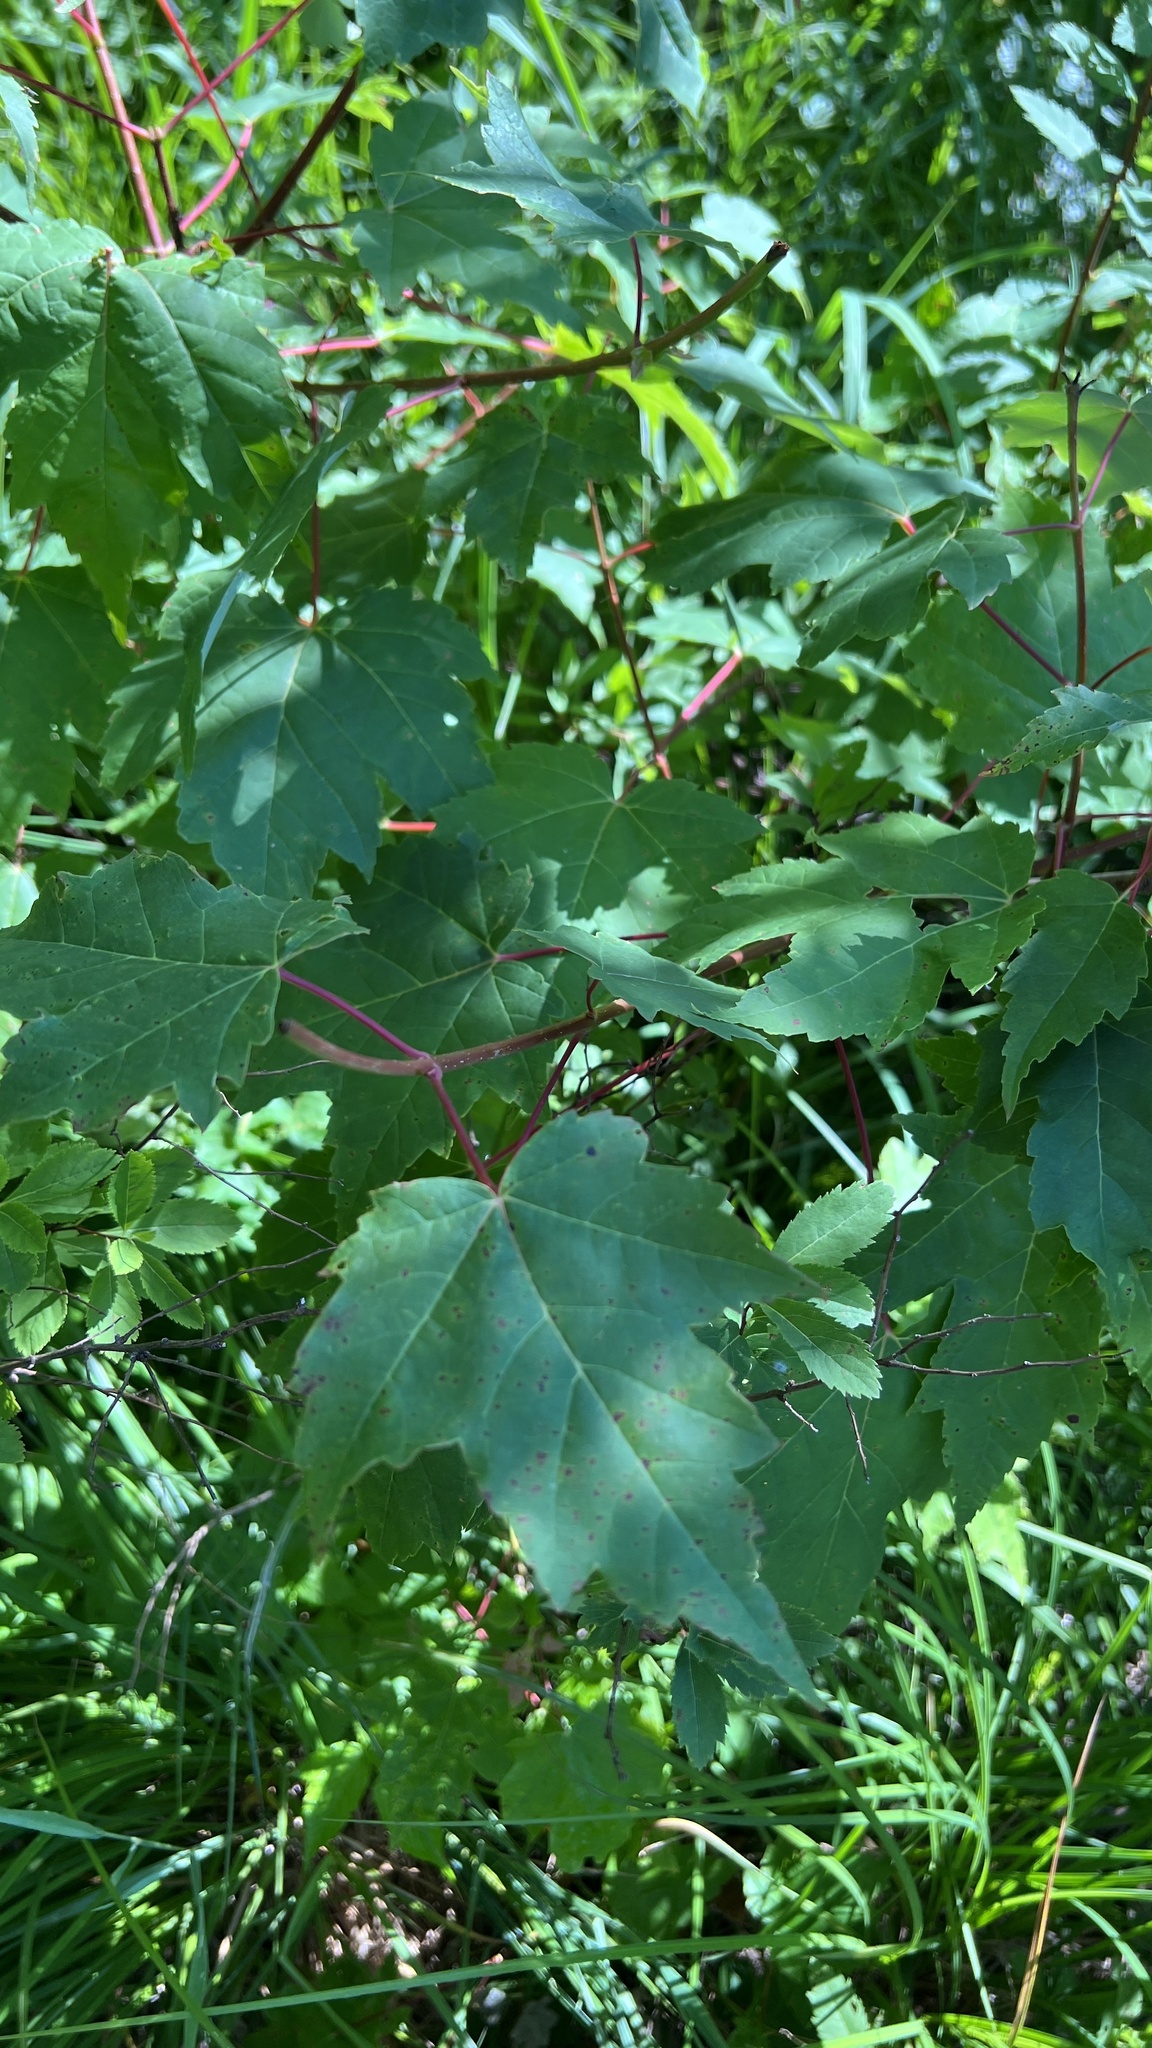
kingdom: Plantae
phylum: Tracheophyta
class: Magnoliopsida
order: Sapindales
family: Sapindaceae
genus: Acer
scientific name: Acer rubrum
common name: Red maple
